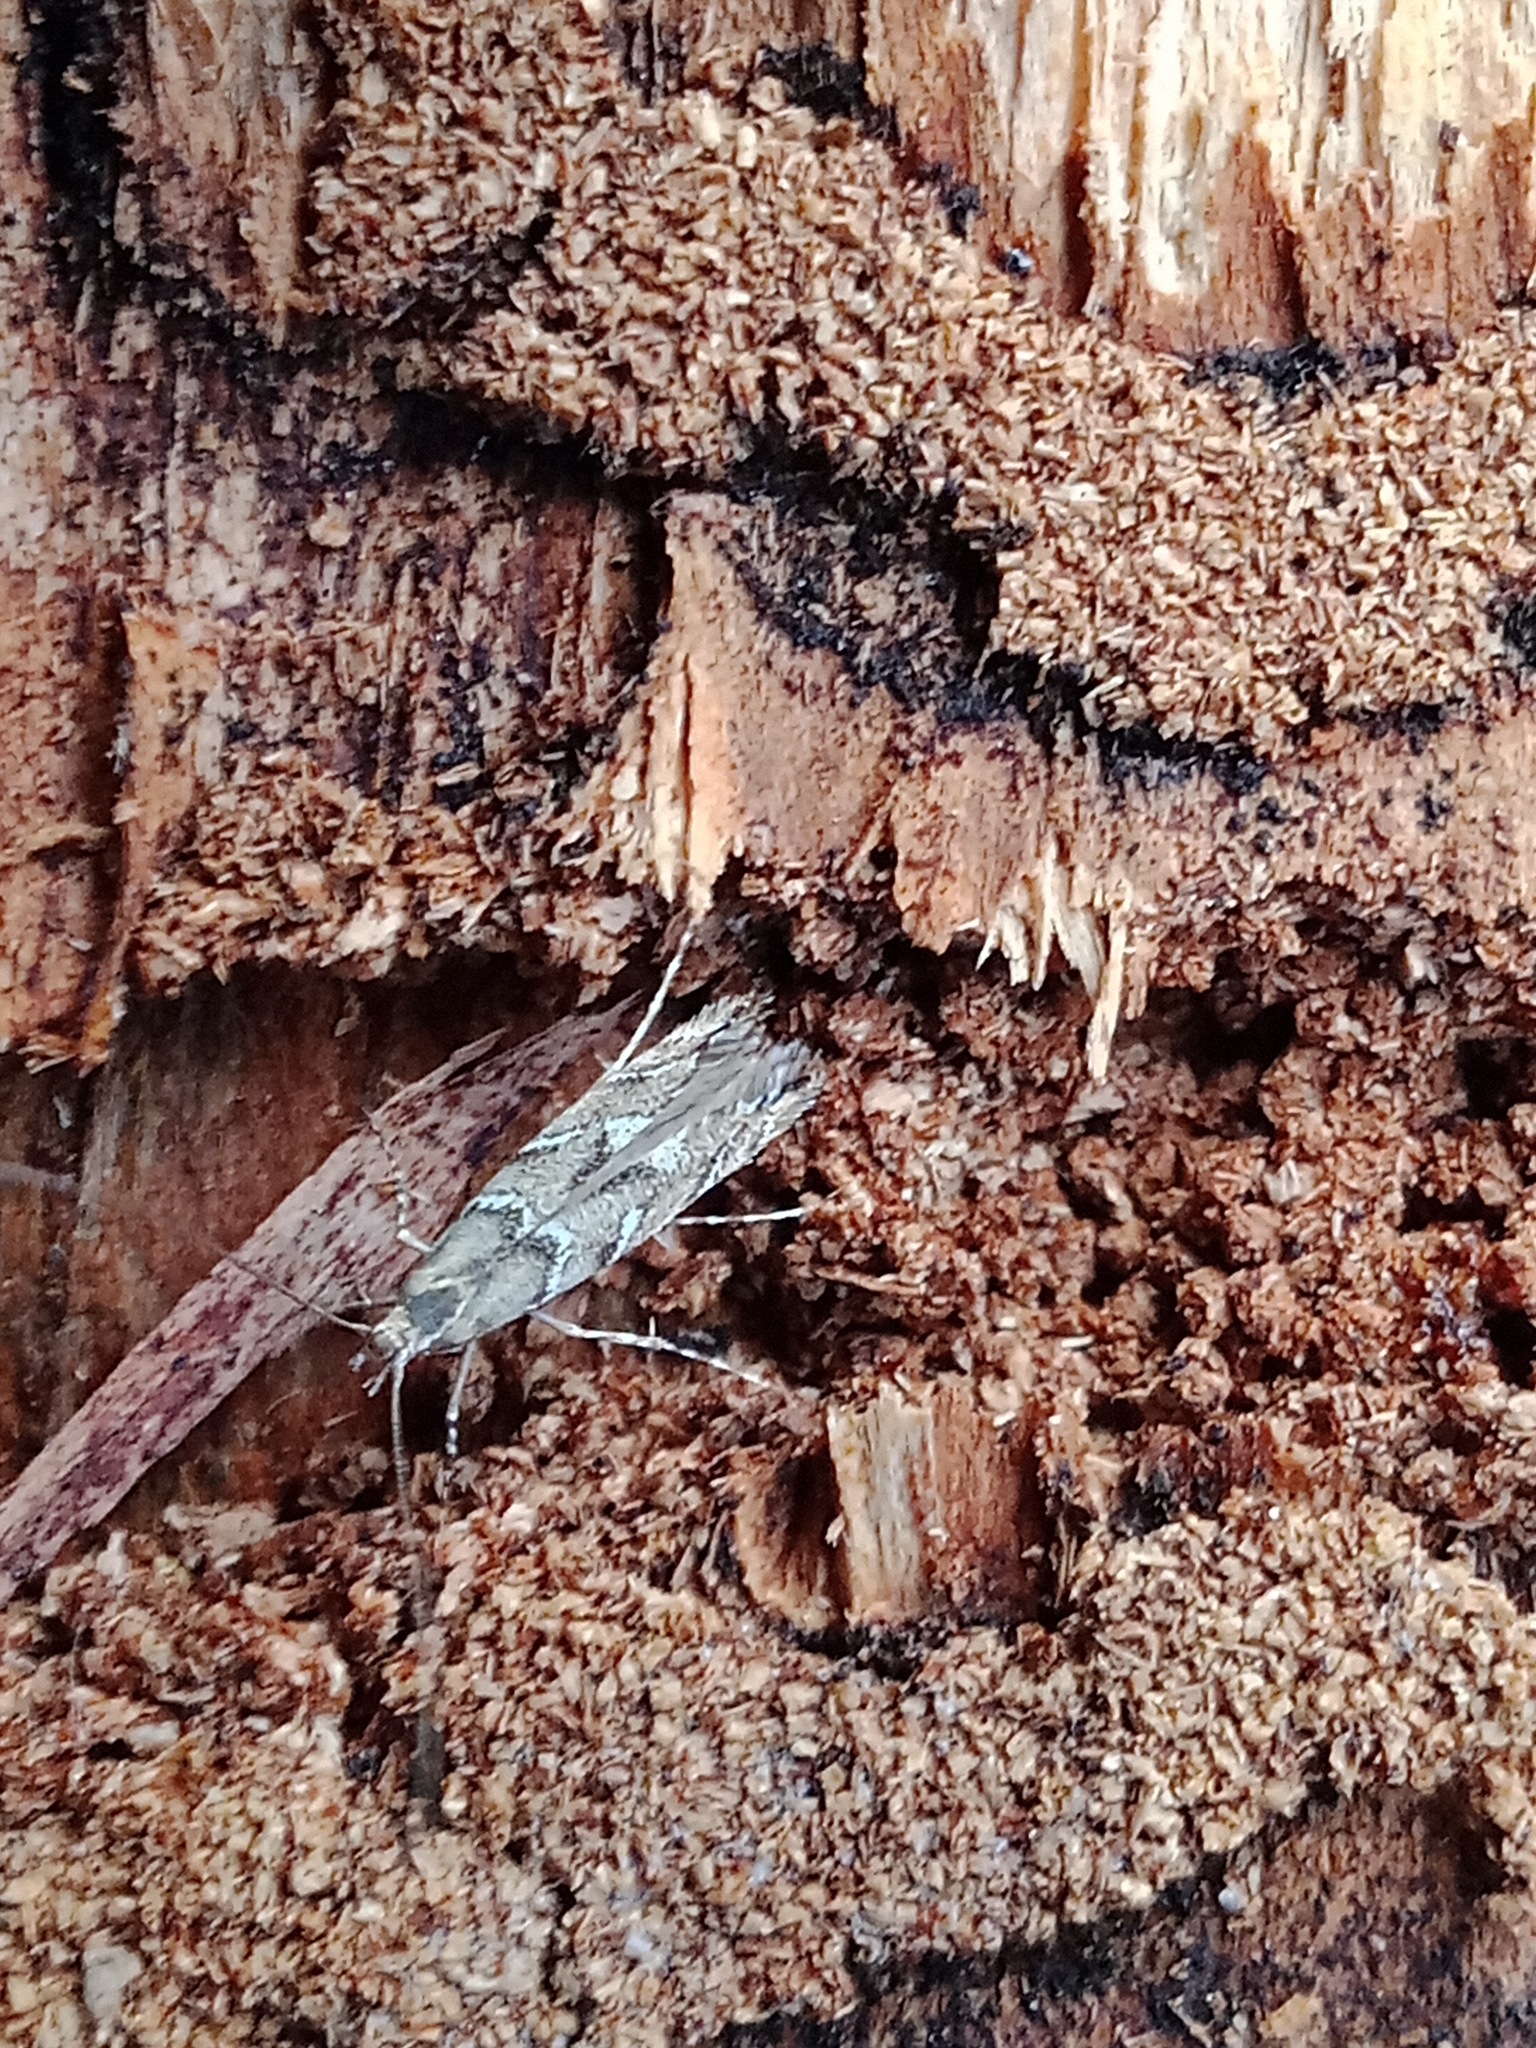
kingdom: Animalia
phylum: Arthropoda
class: Insecta
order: Lepidoptera
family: Gracillariidae
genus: Acrocercops
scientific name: Acrocercops brongniardella
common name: Brown oak slender
